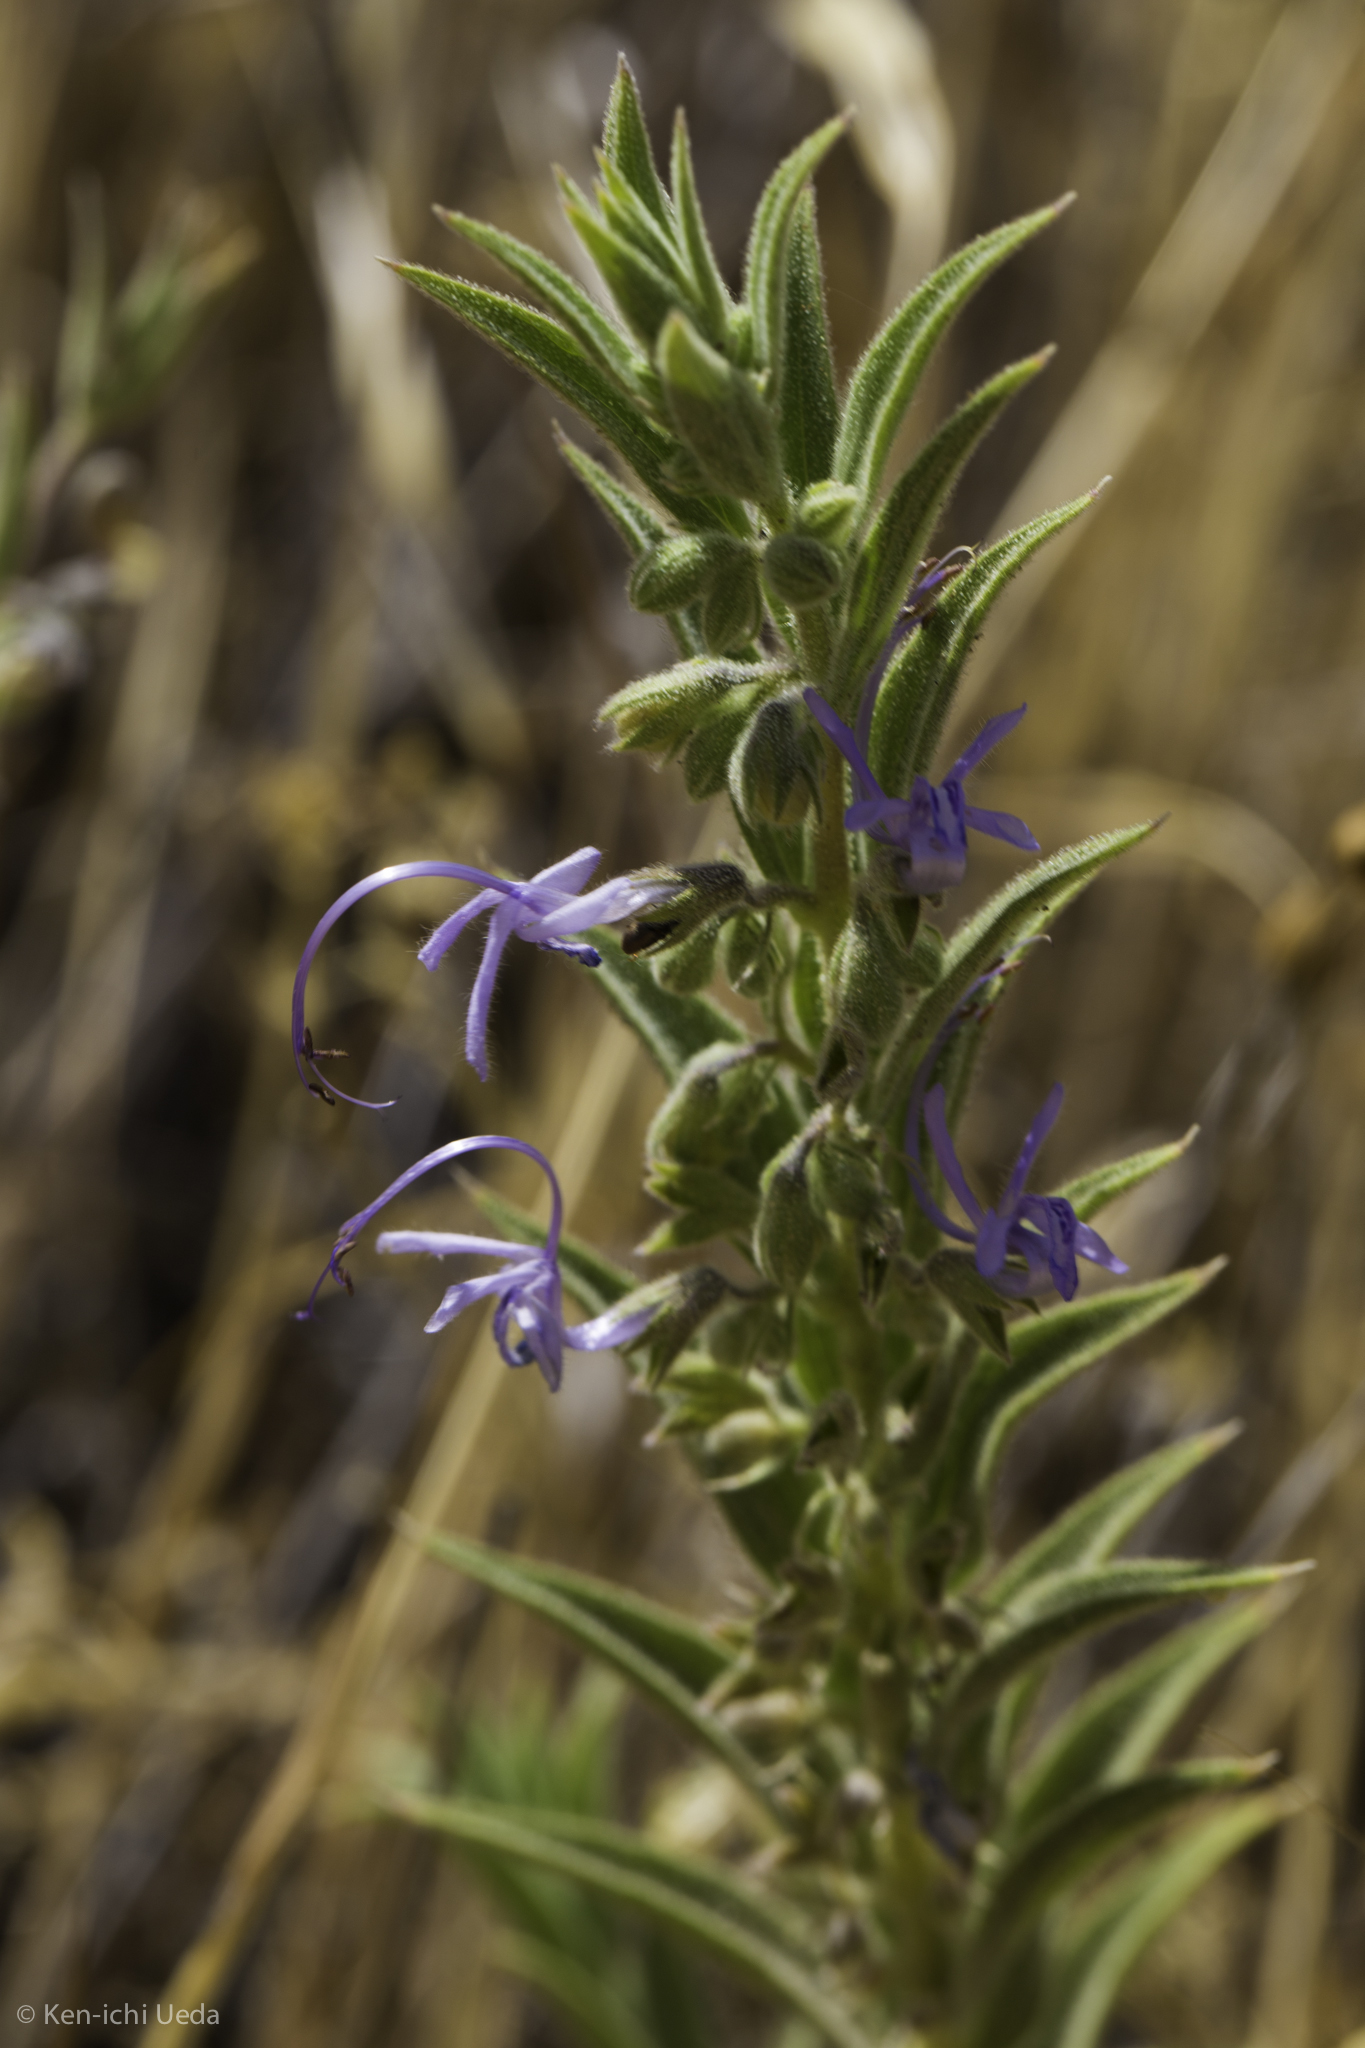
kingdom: Plantae
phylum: Tracheophyta
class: Magnoliopsida
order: Lamiales
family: Lamiaceae
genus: Trichostema
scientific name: Trichostema lanceolatum
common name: Vinegar-weed
